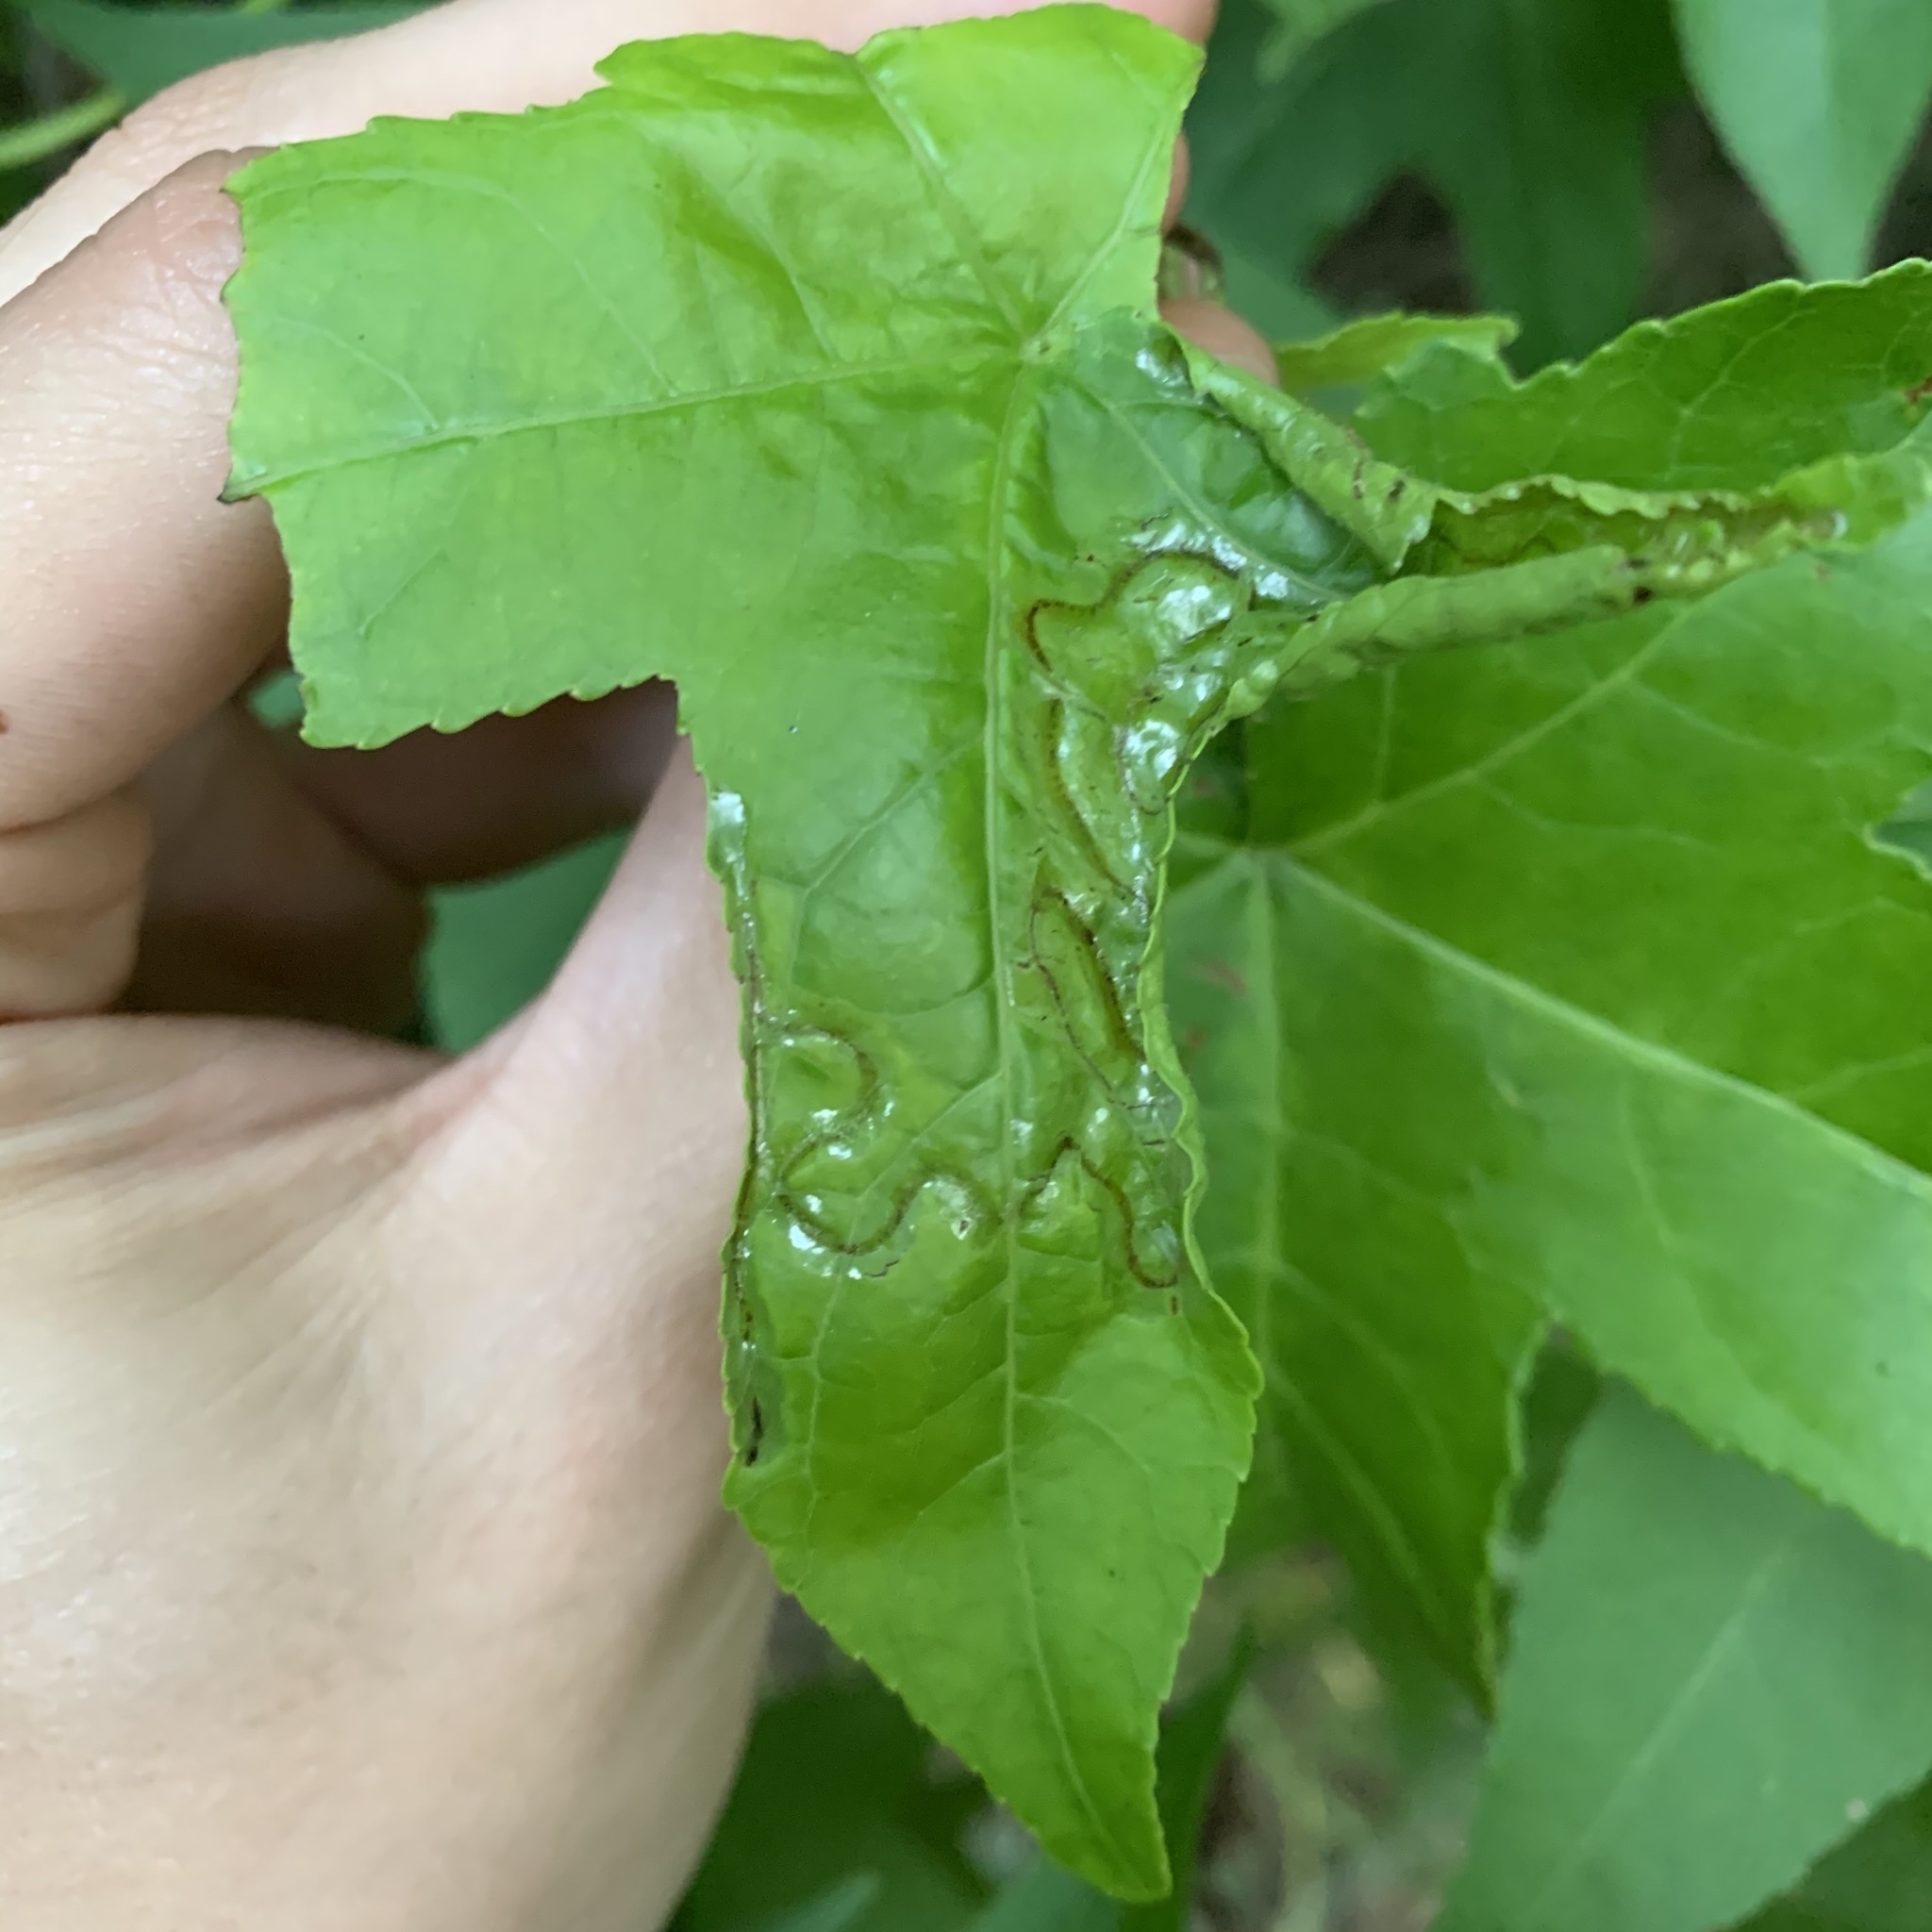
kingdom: Animalia
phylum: Arthropoda
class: Insecta
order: Lepidoptera
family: Gracillariidae
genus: Phyllocnistis
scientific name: Phyllocnistis liquidambarisella
